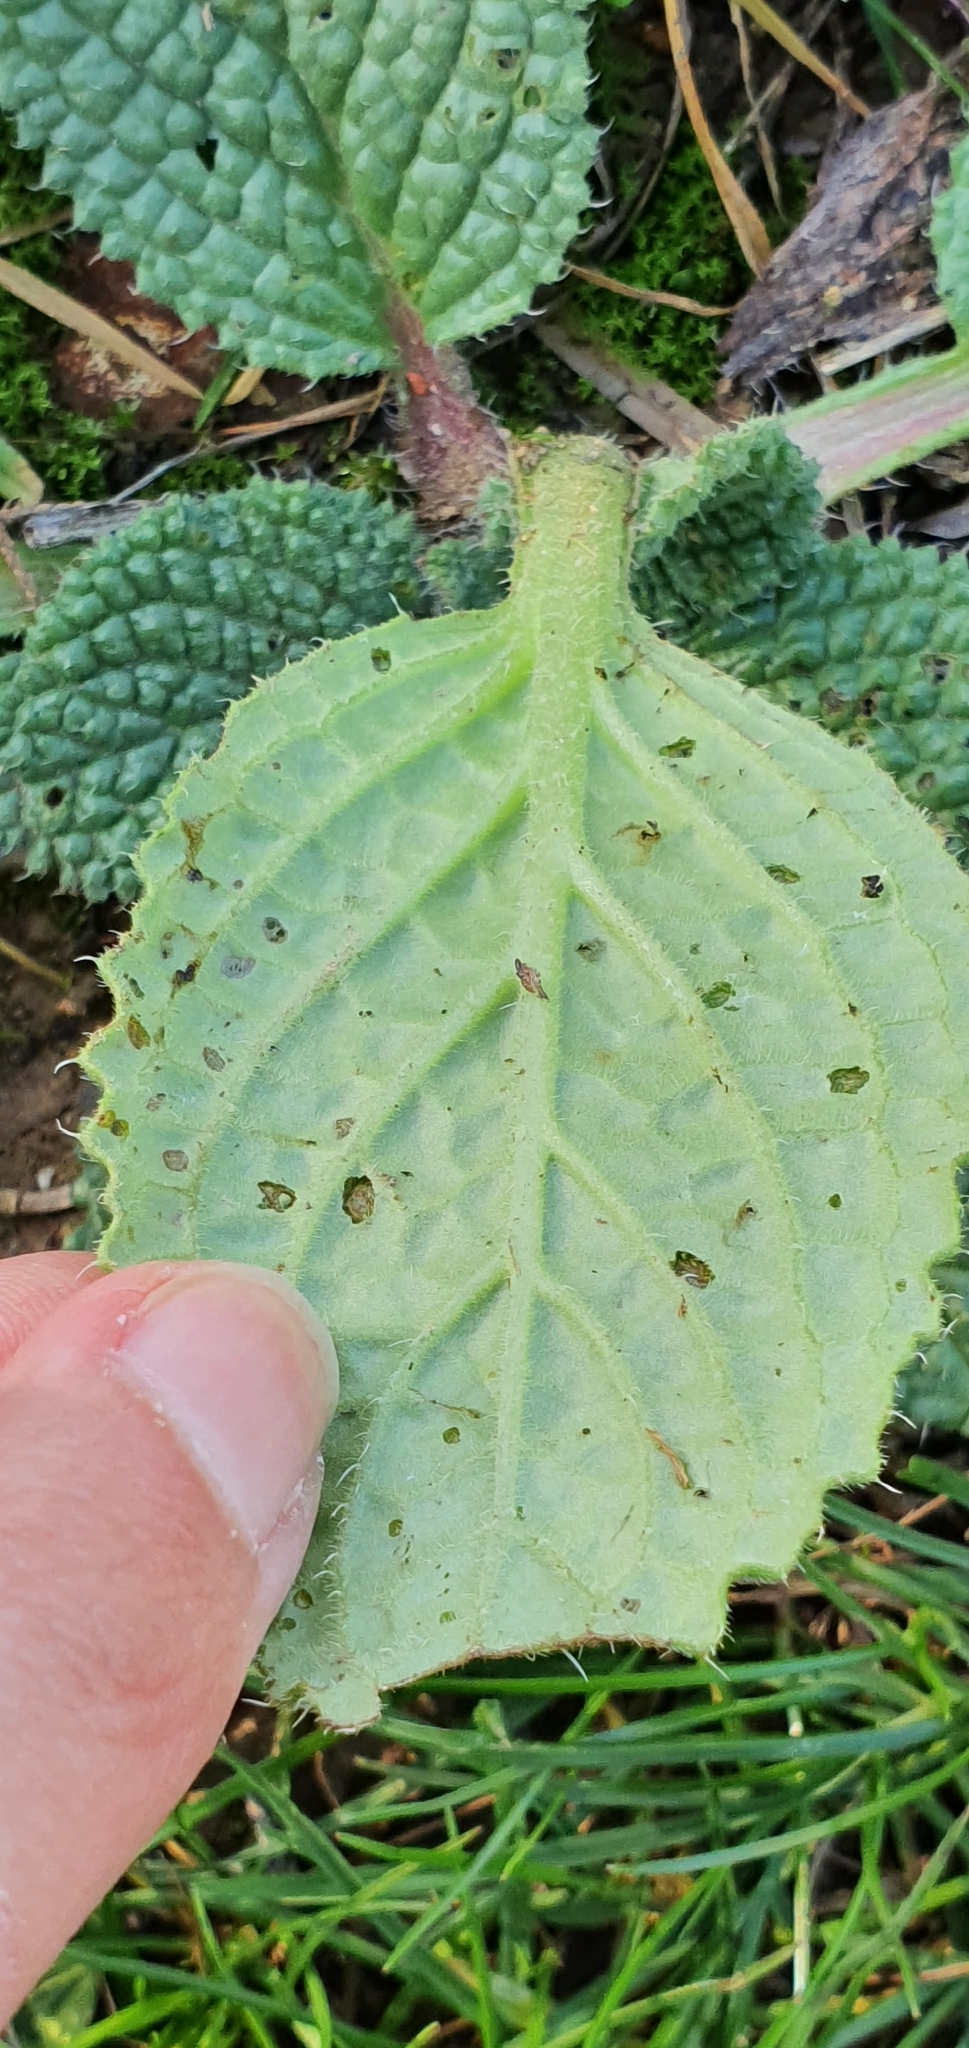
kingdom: Plantae
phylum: Tracheophyta
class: Magnoliopsida
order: Boraginales
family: Boraginaceae
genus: Borago
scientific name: Borago officinalis
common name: Borage
